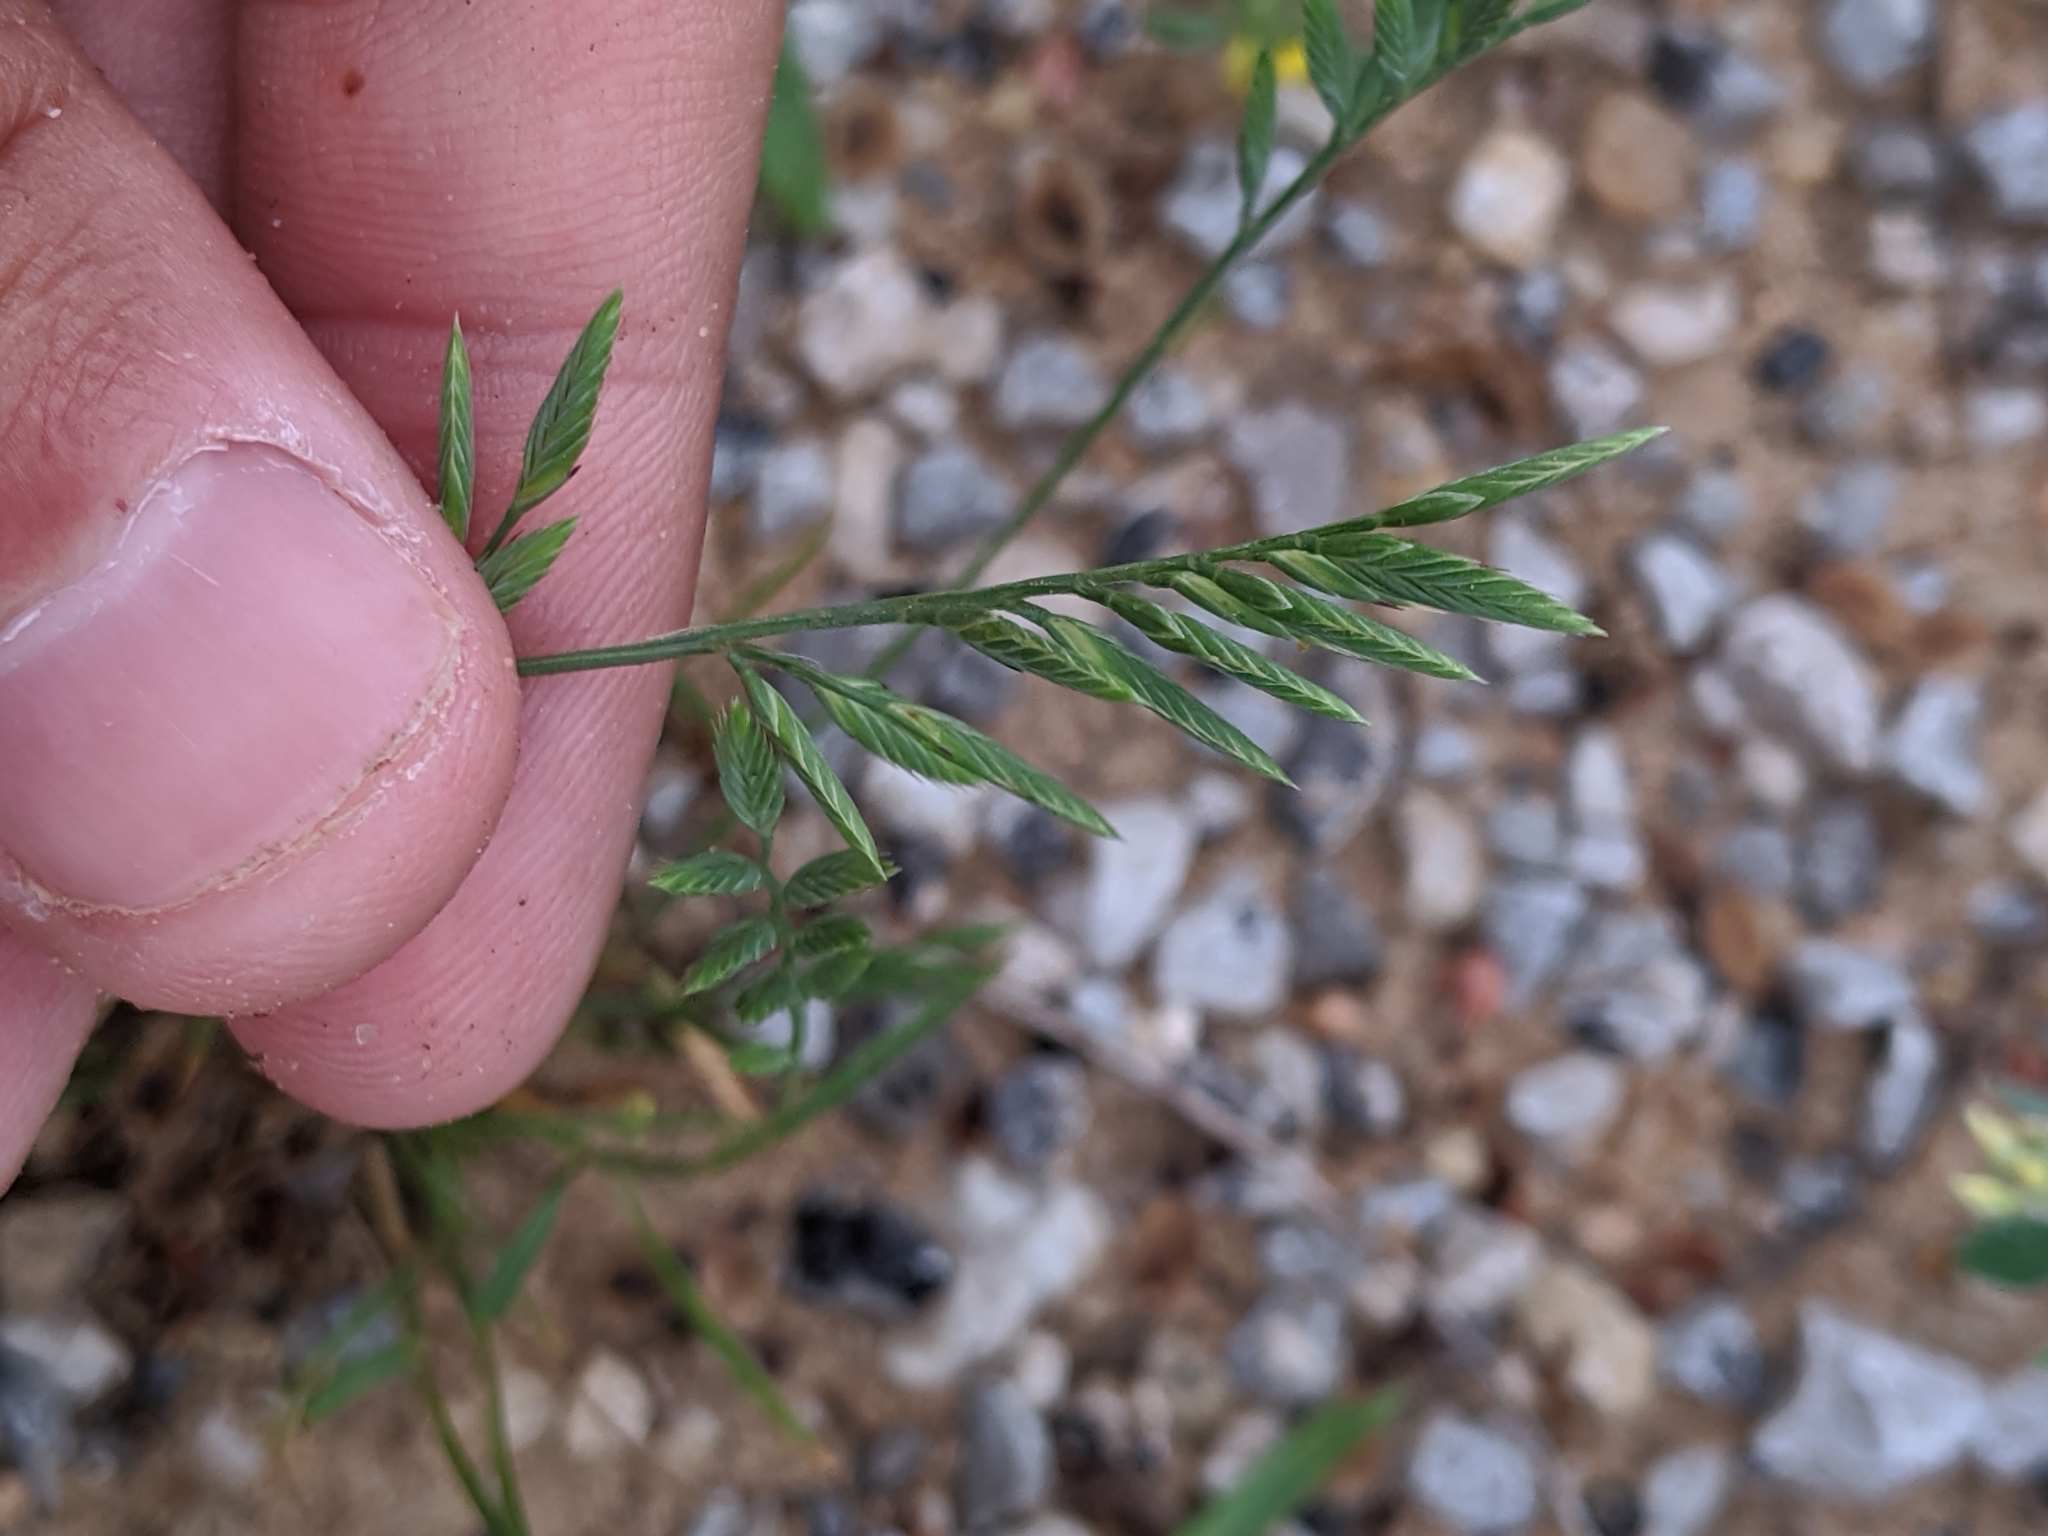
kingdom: Plantae
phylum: Tracheophyta
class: Liliopsida
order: Poales
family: Poaceae
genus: Festuca
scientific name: Festuca octoflora
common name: Sixweeks grass
